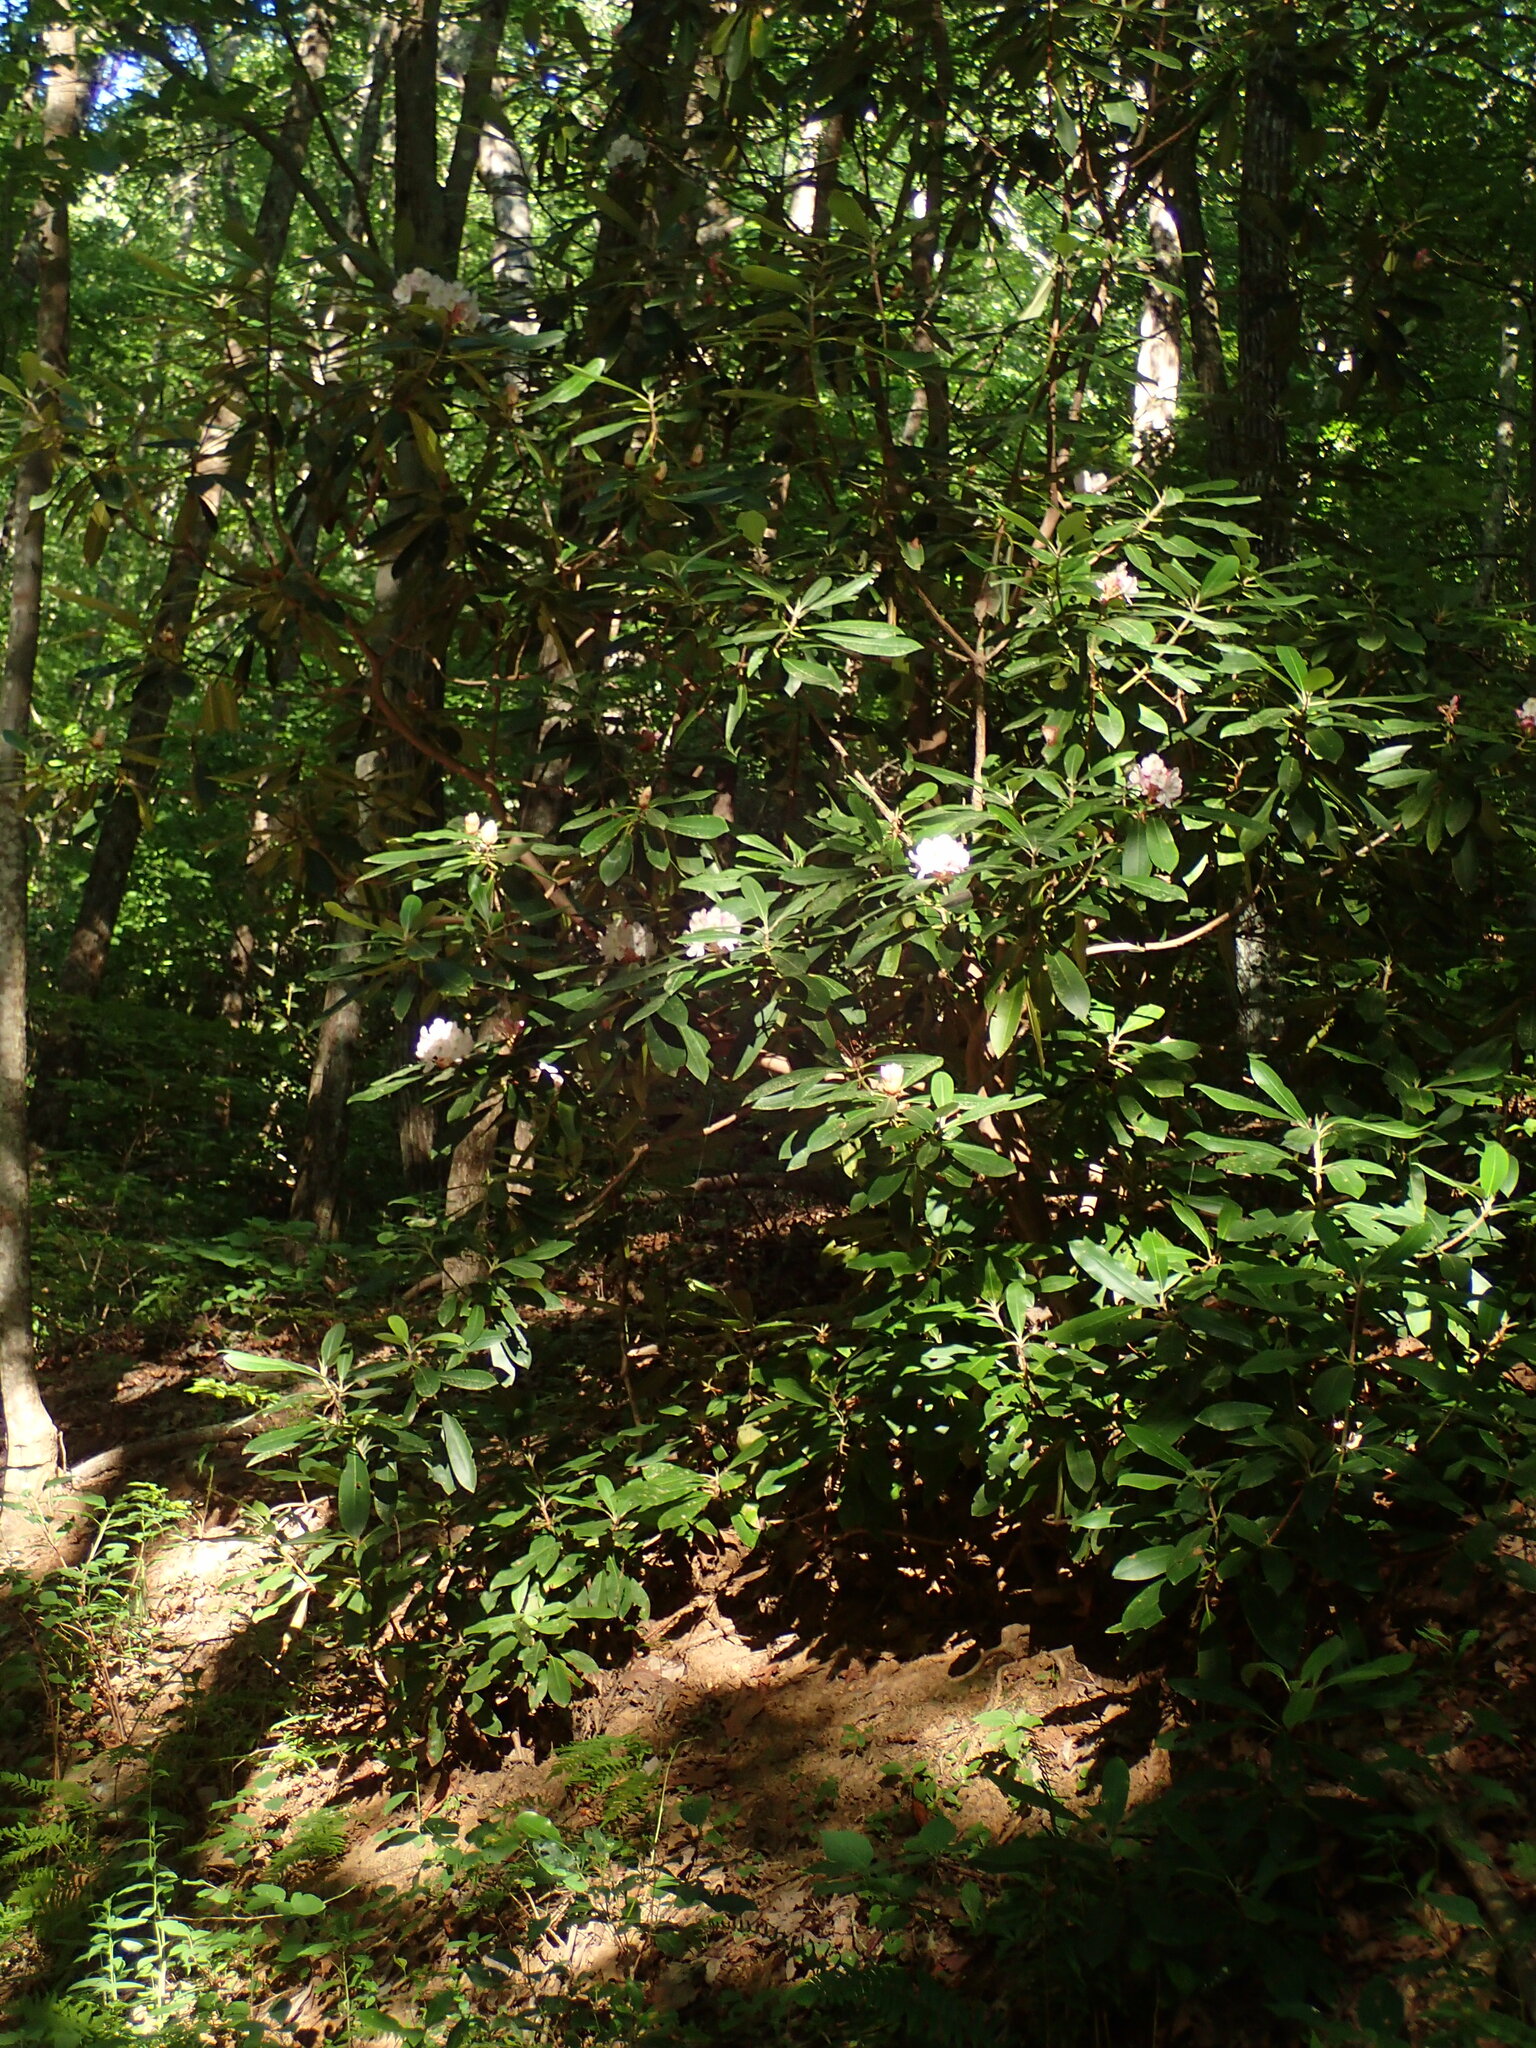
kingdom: Plantae
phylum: Tracheophyta
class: Magnoliopsida
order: Ericales
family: Ericaceae
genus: Rhododendron
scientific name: Rhododendron maximum
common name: Great rhododendron
